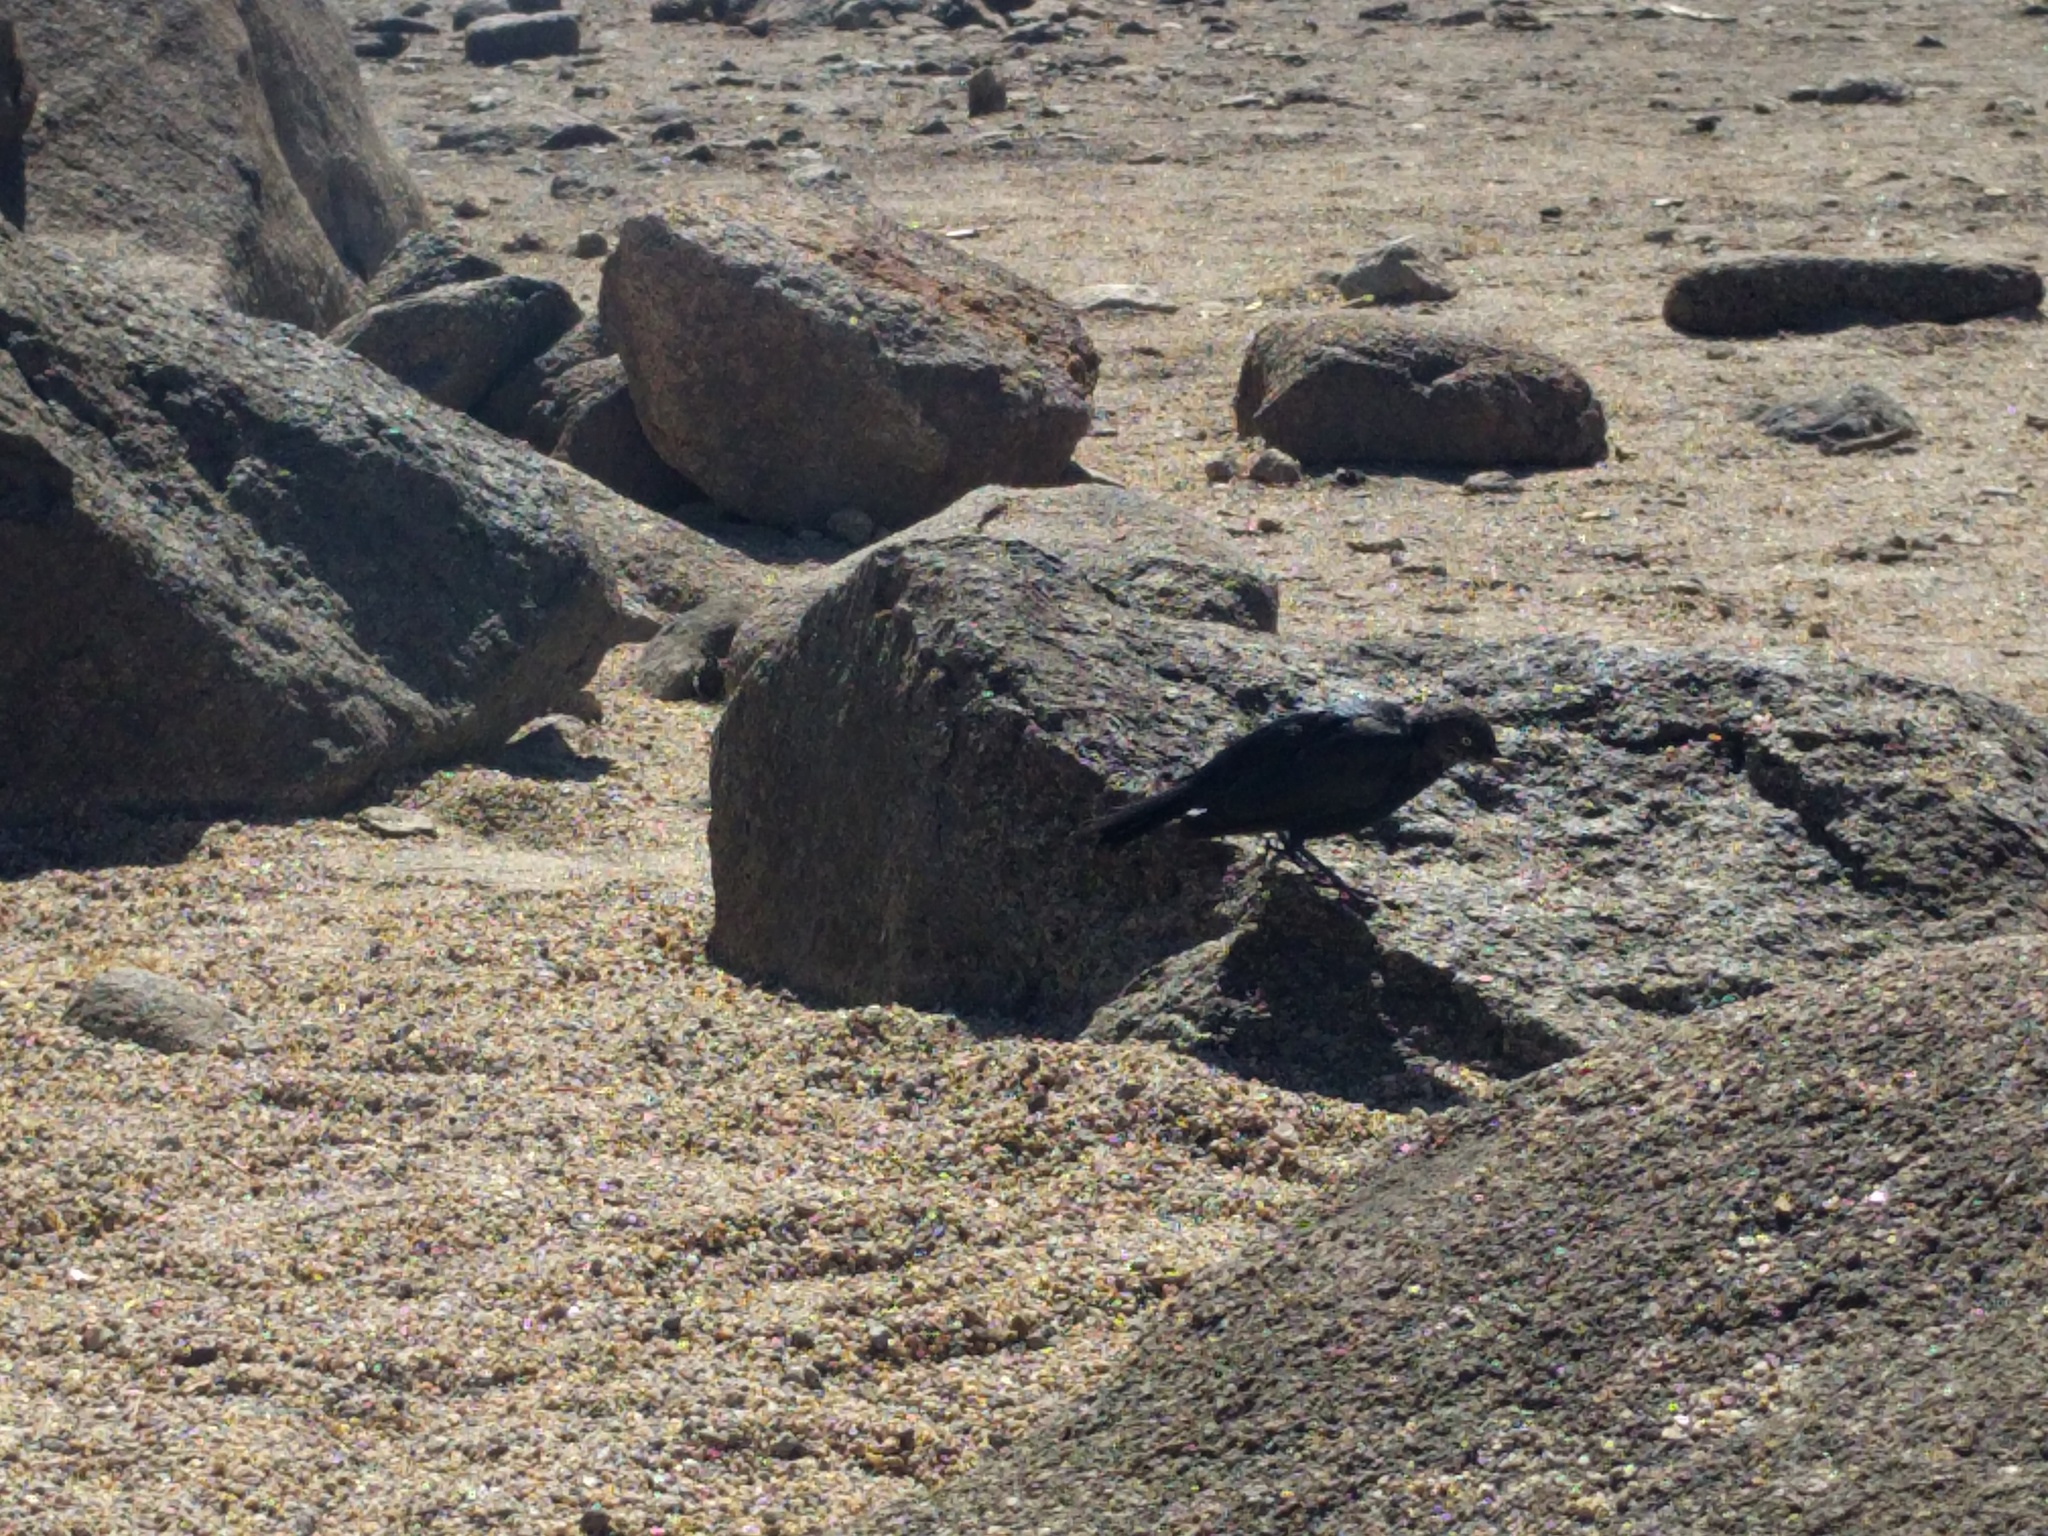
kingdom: Animalia
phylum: Chordata
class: Aves
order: Passeriformes
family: Icteridae
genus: Euphagus
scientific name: Euphagus cyanocephalus
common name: Brewer's blackbird
